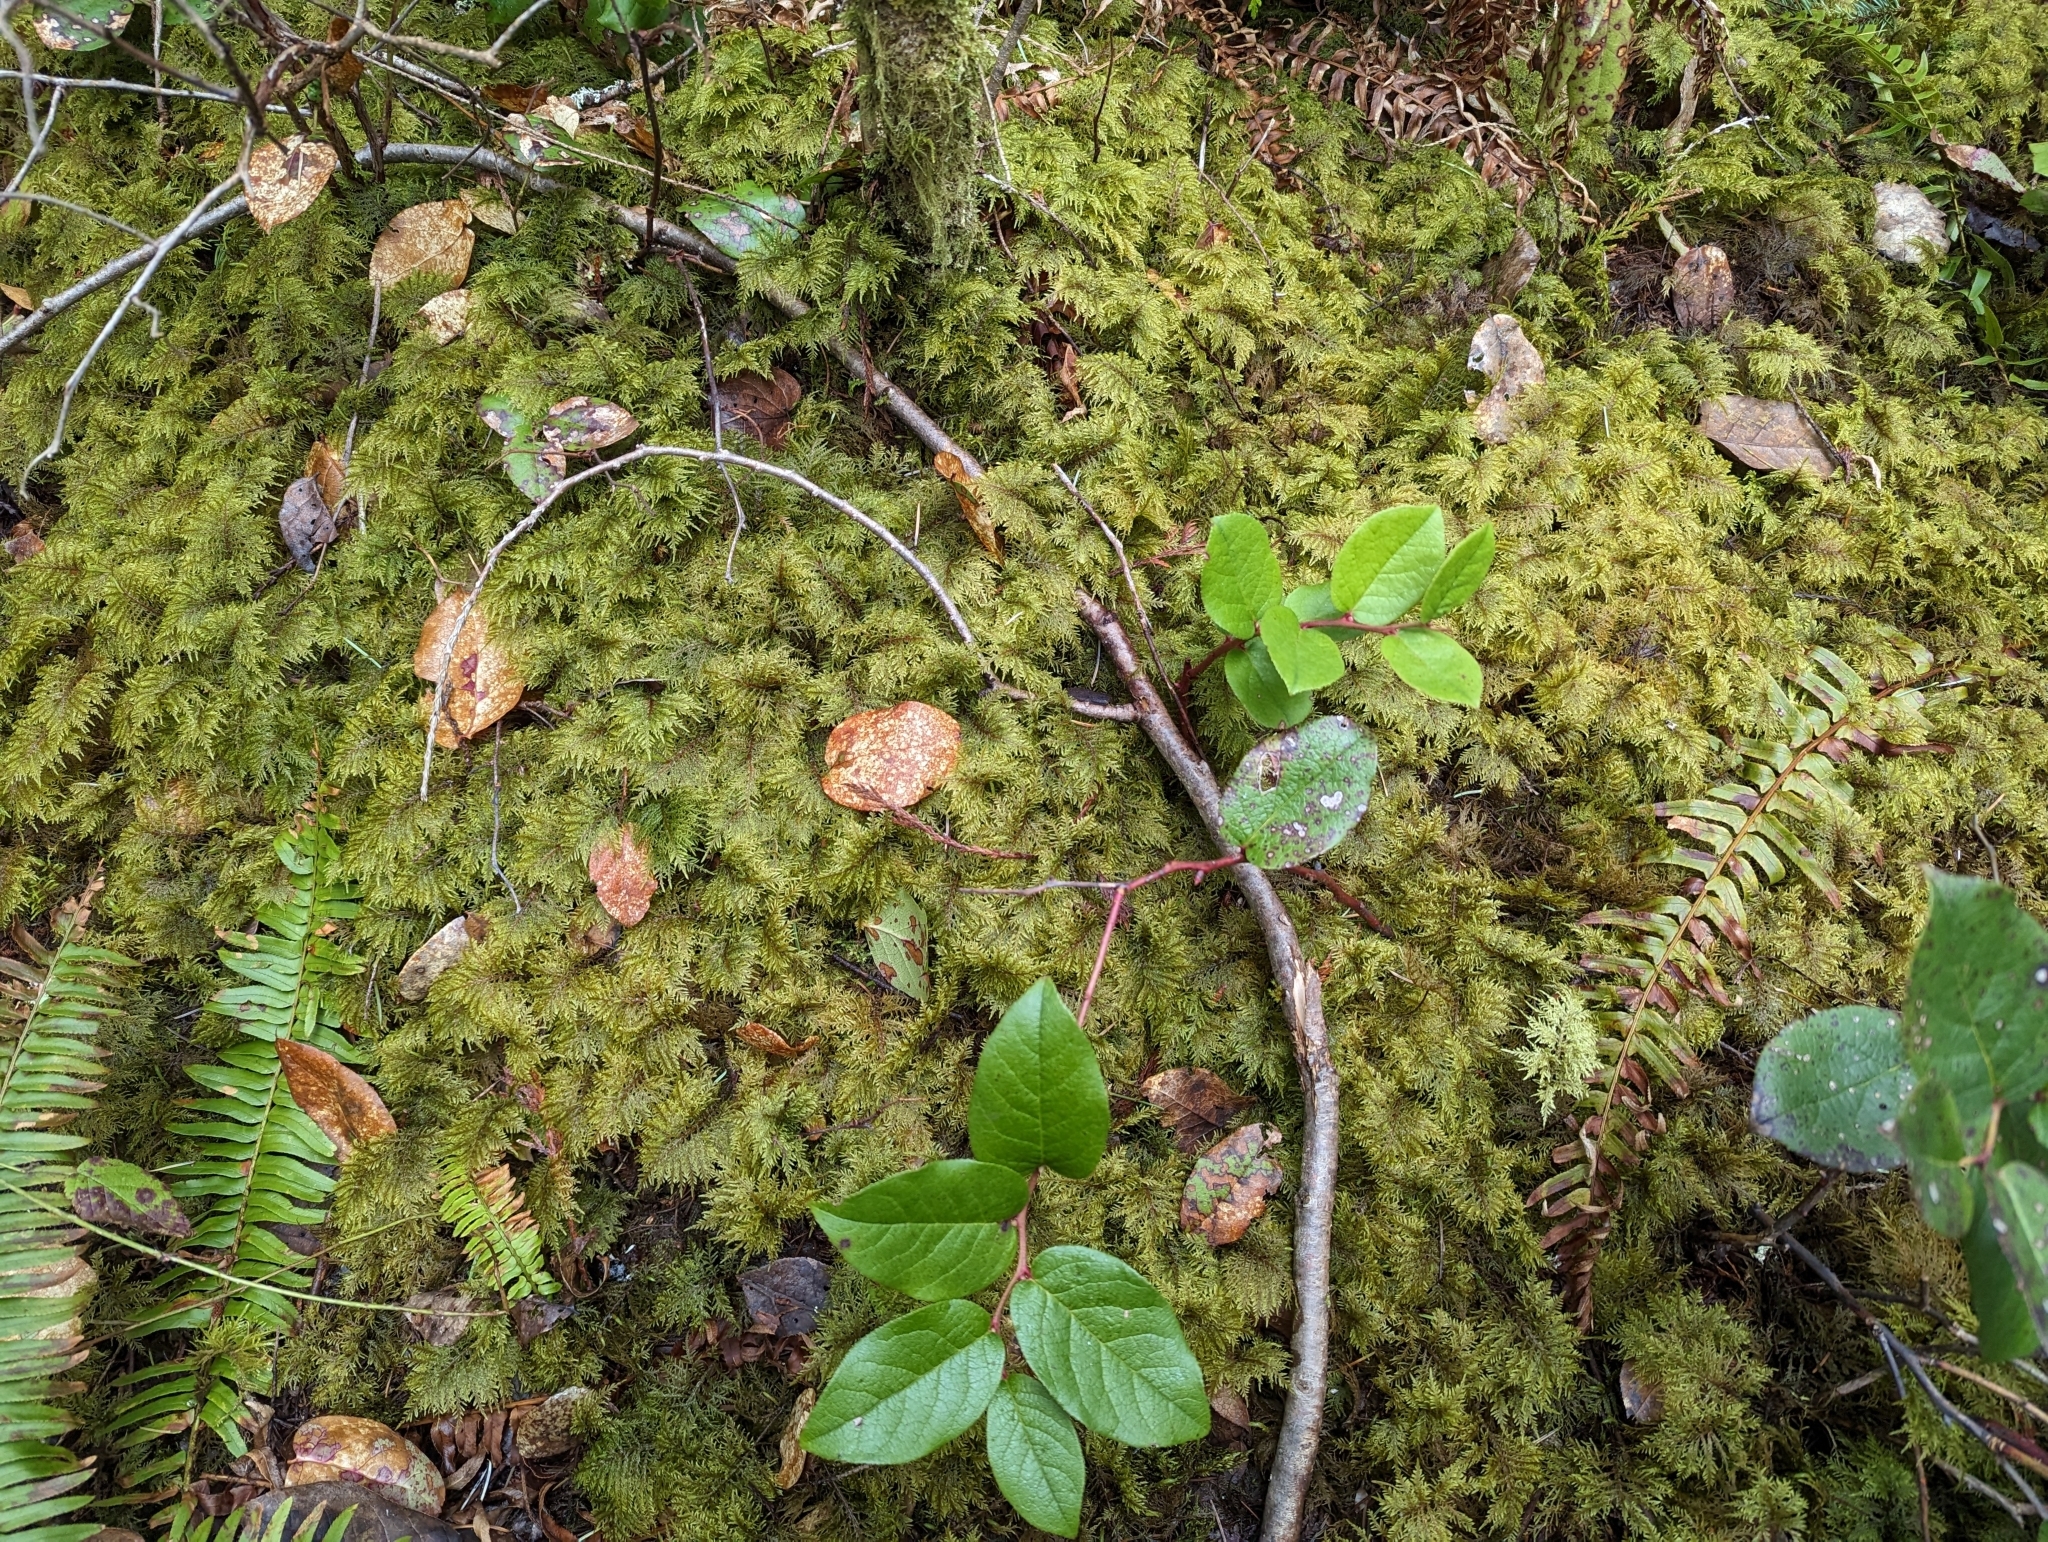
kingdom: Plantae
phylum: Bryophyta
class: Bryopsida
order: Hypnales
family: Hylocomiaceae
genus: Hylocomium
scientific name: Hylocomium splendens
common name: Stairstep moss
